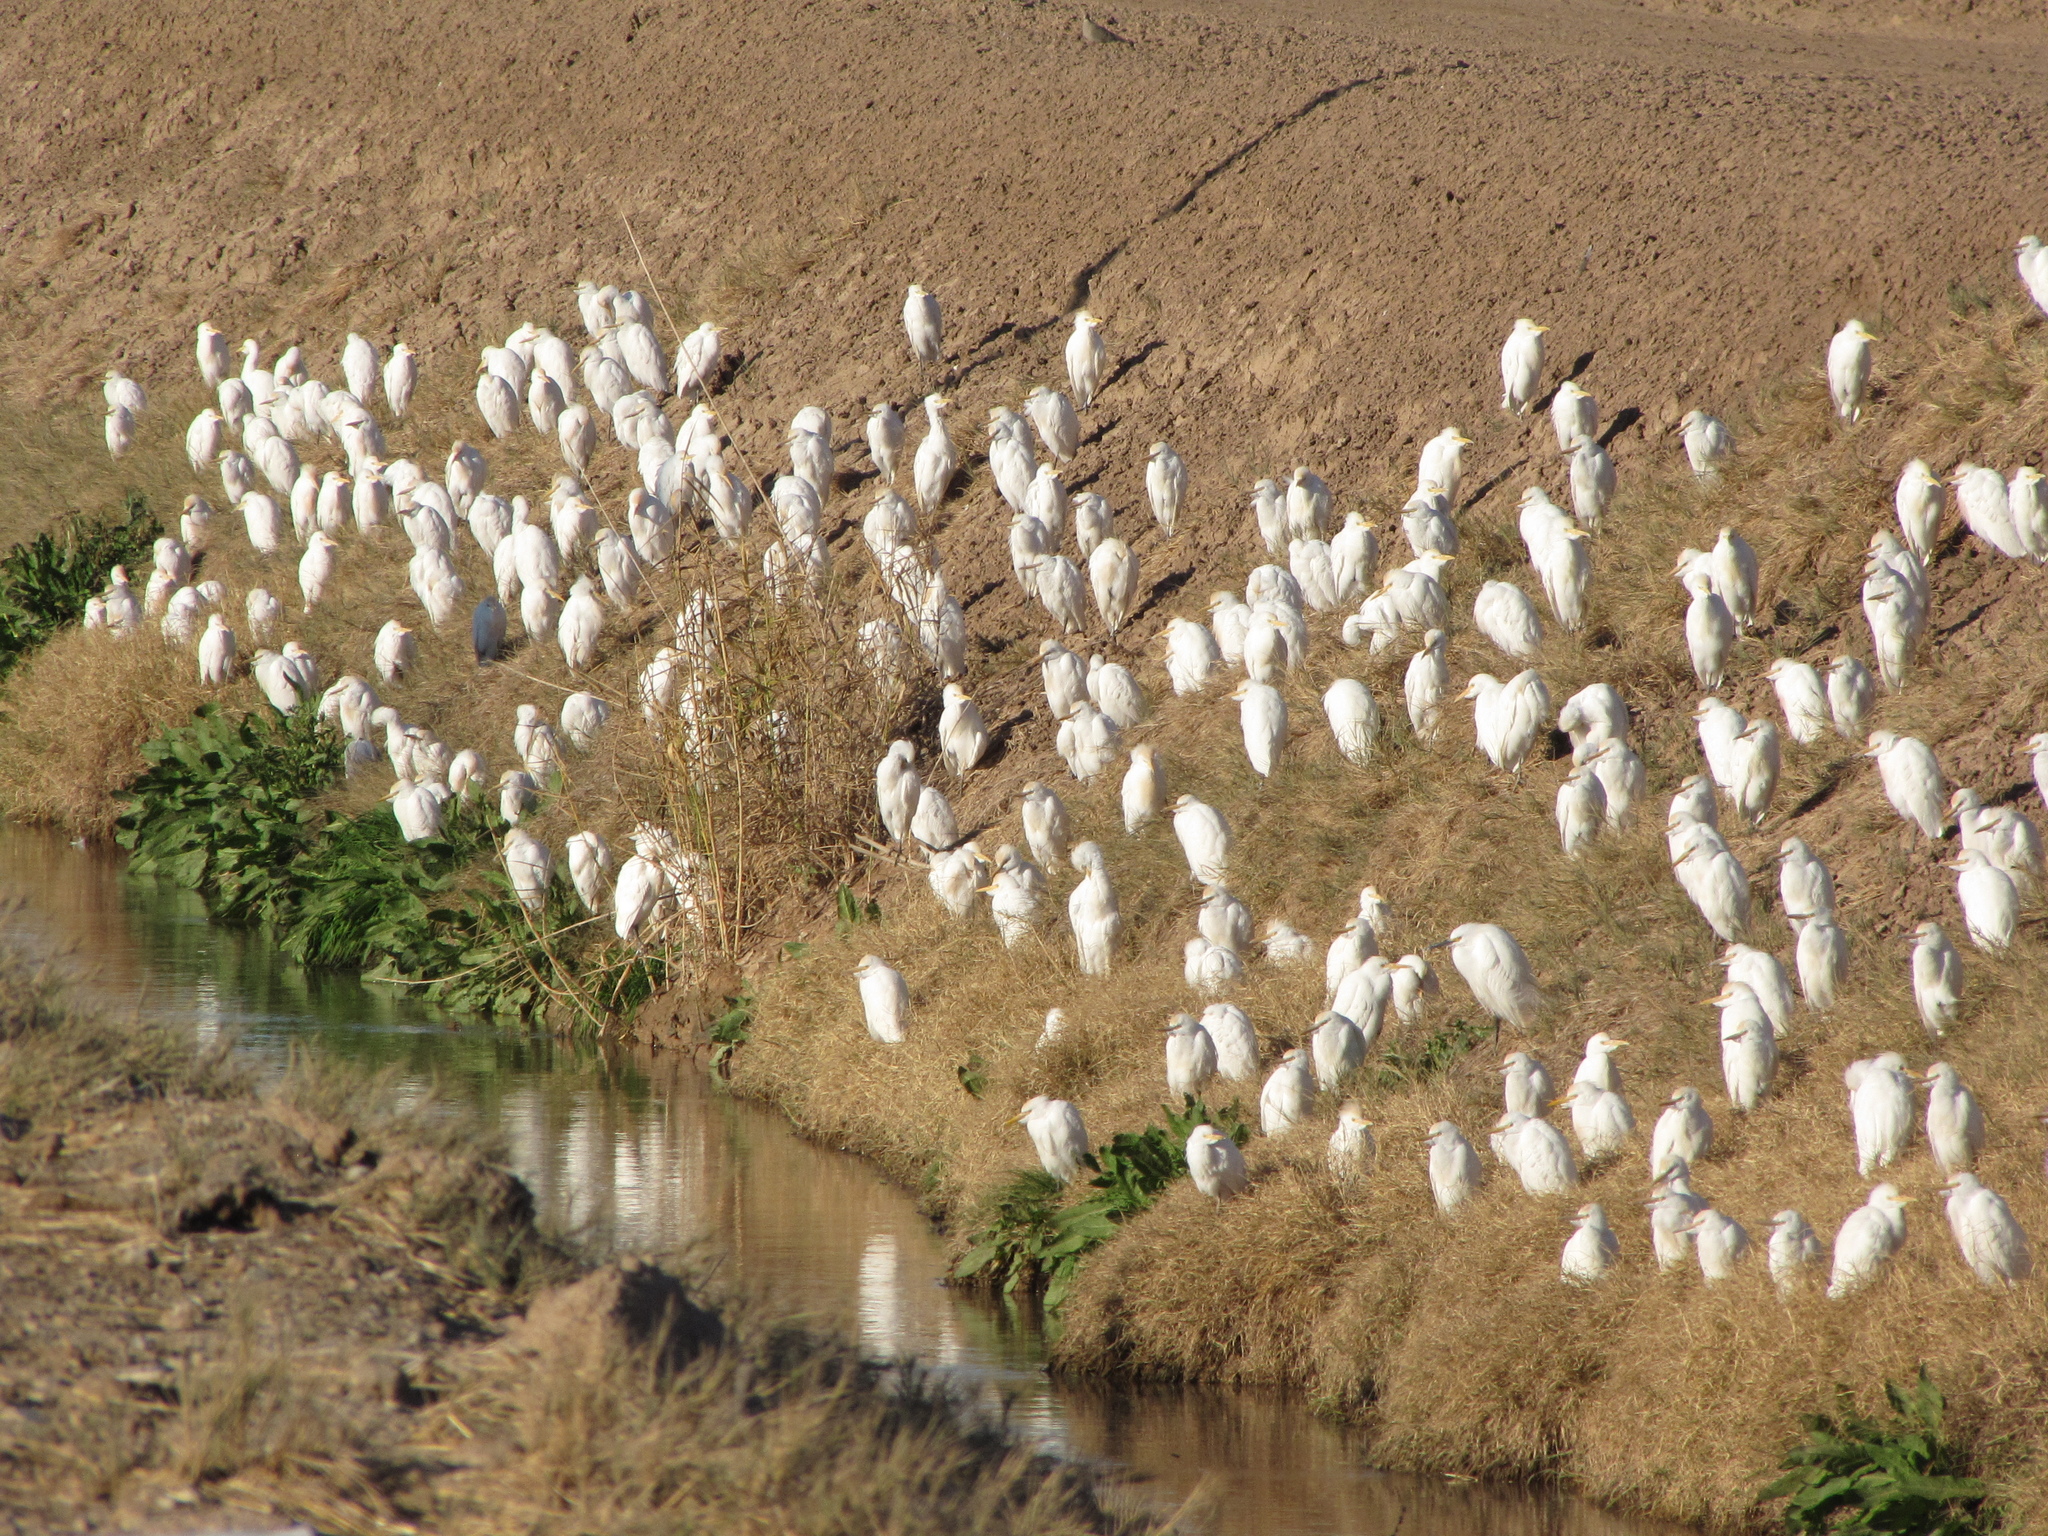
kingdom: Animalia
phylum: Chordata
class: Aves
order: Pelecaniformes
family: Ardeidae
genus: Bubulcus
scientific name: Bubulcus ibis
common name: Cattle egret
